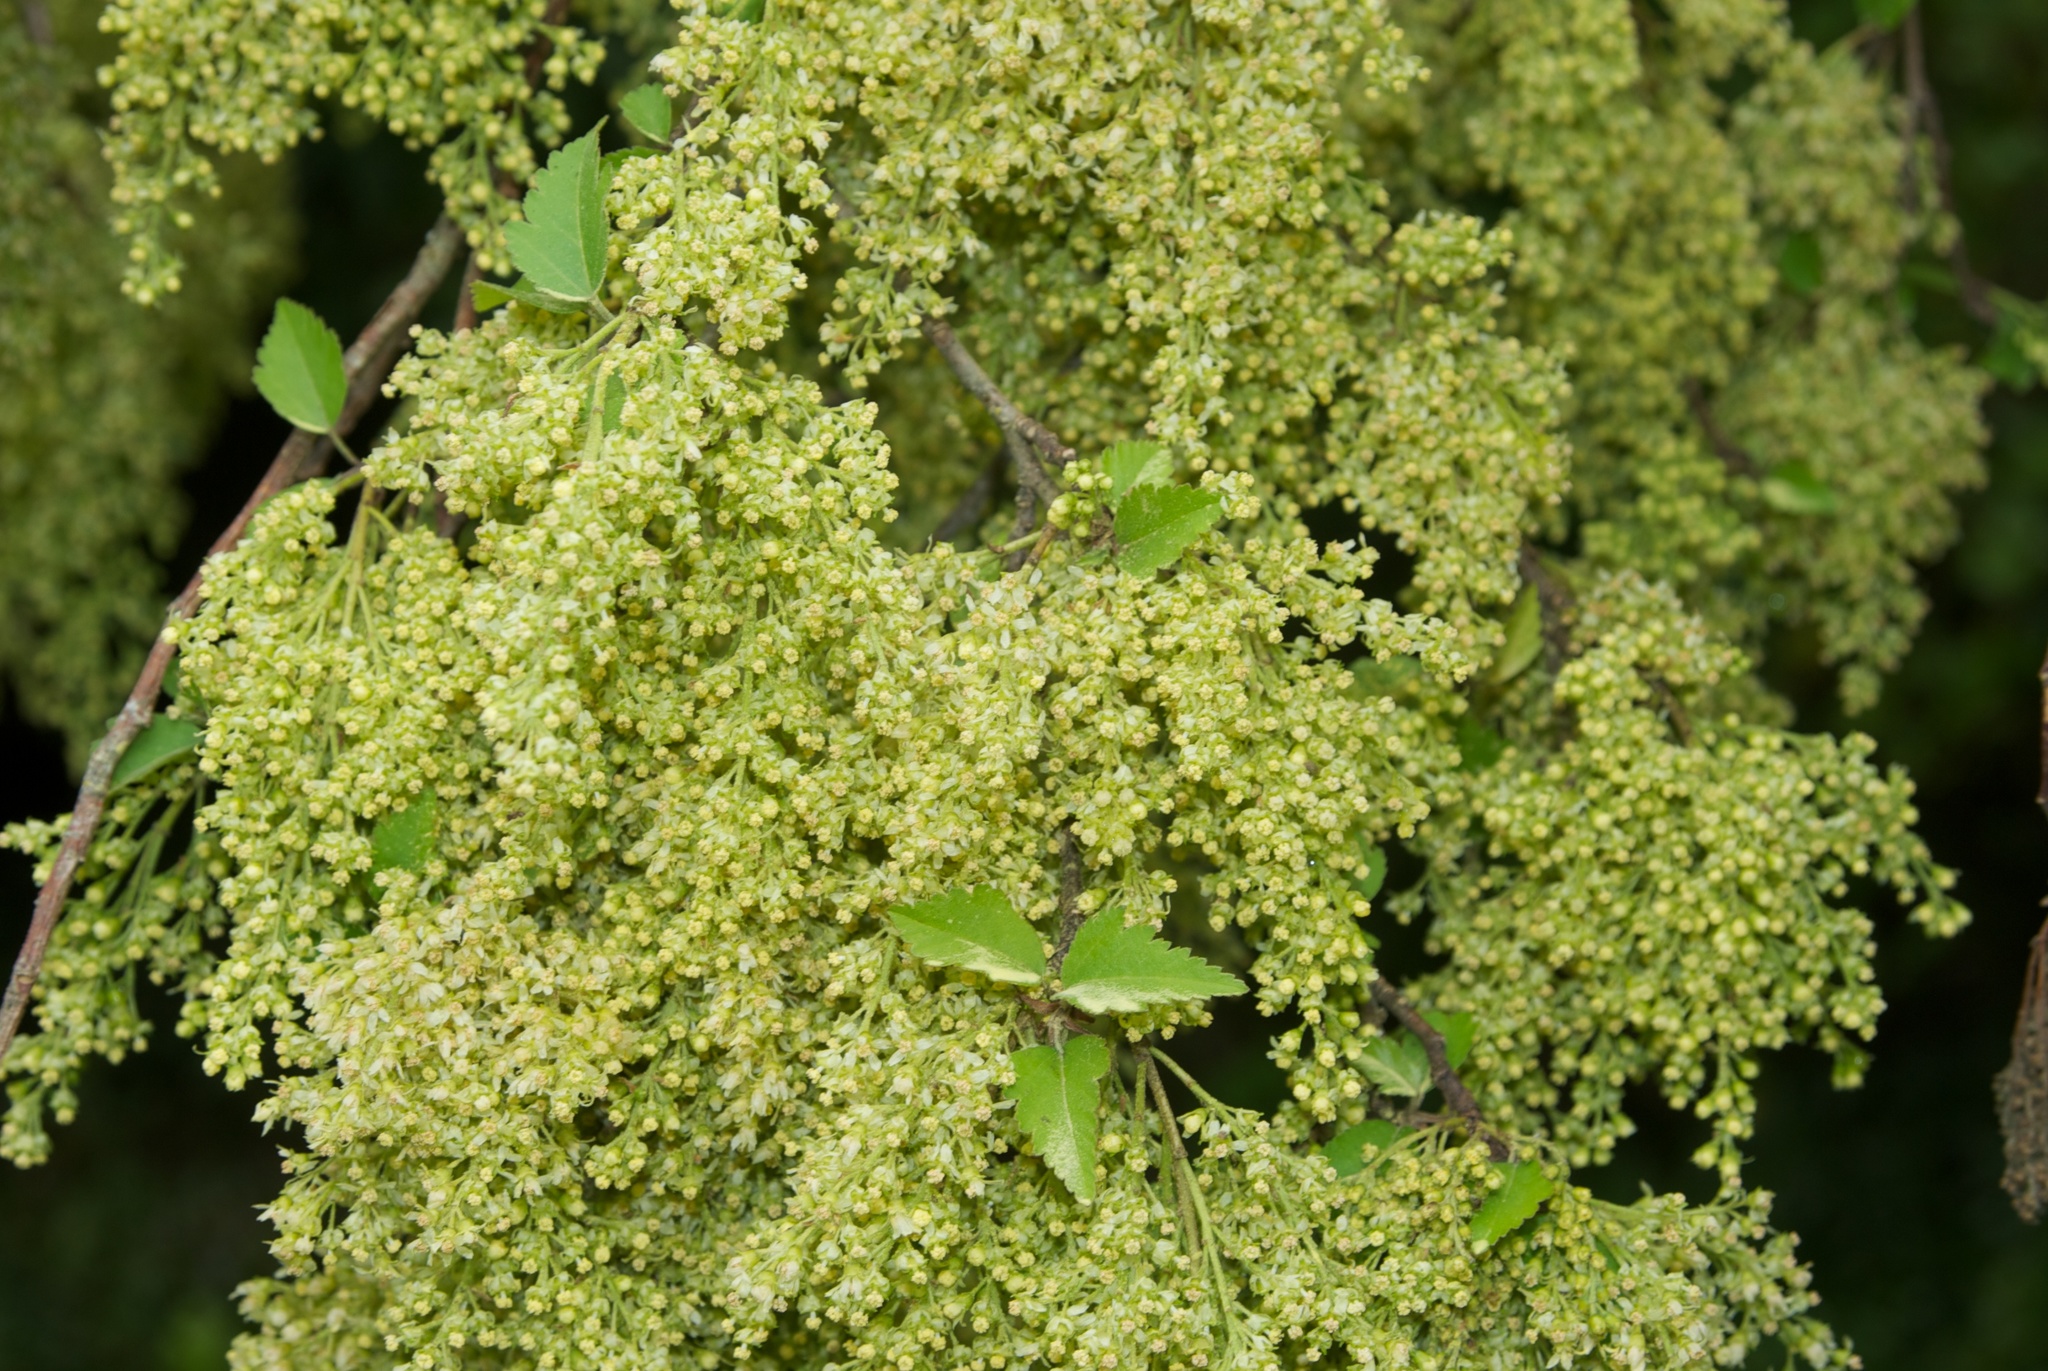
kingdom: Plantae
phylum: Tracheophyta
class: Magnoliopsida
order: Malvales
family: Malvaceae
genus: Plagianthus
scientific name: Plagianthus regius
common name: Manatu
